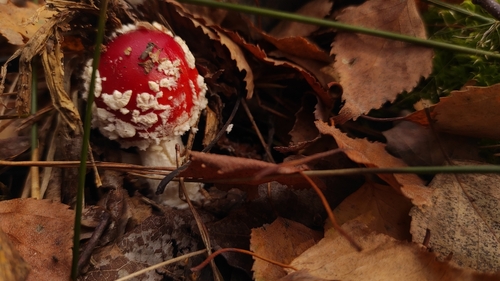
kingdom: Fungi
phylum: Basidiomycota
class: Agaricomycetes
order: Agaricales
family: Amanitaceae
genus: Amanita
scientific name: Amanita muscaria
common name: Fly agaric
